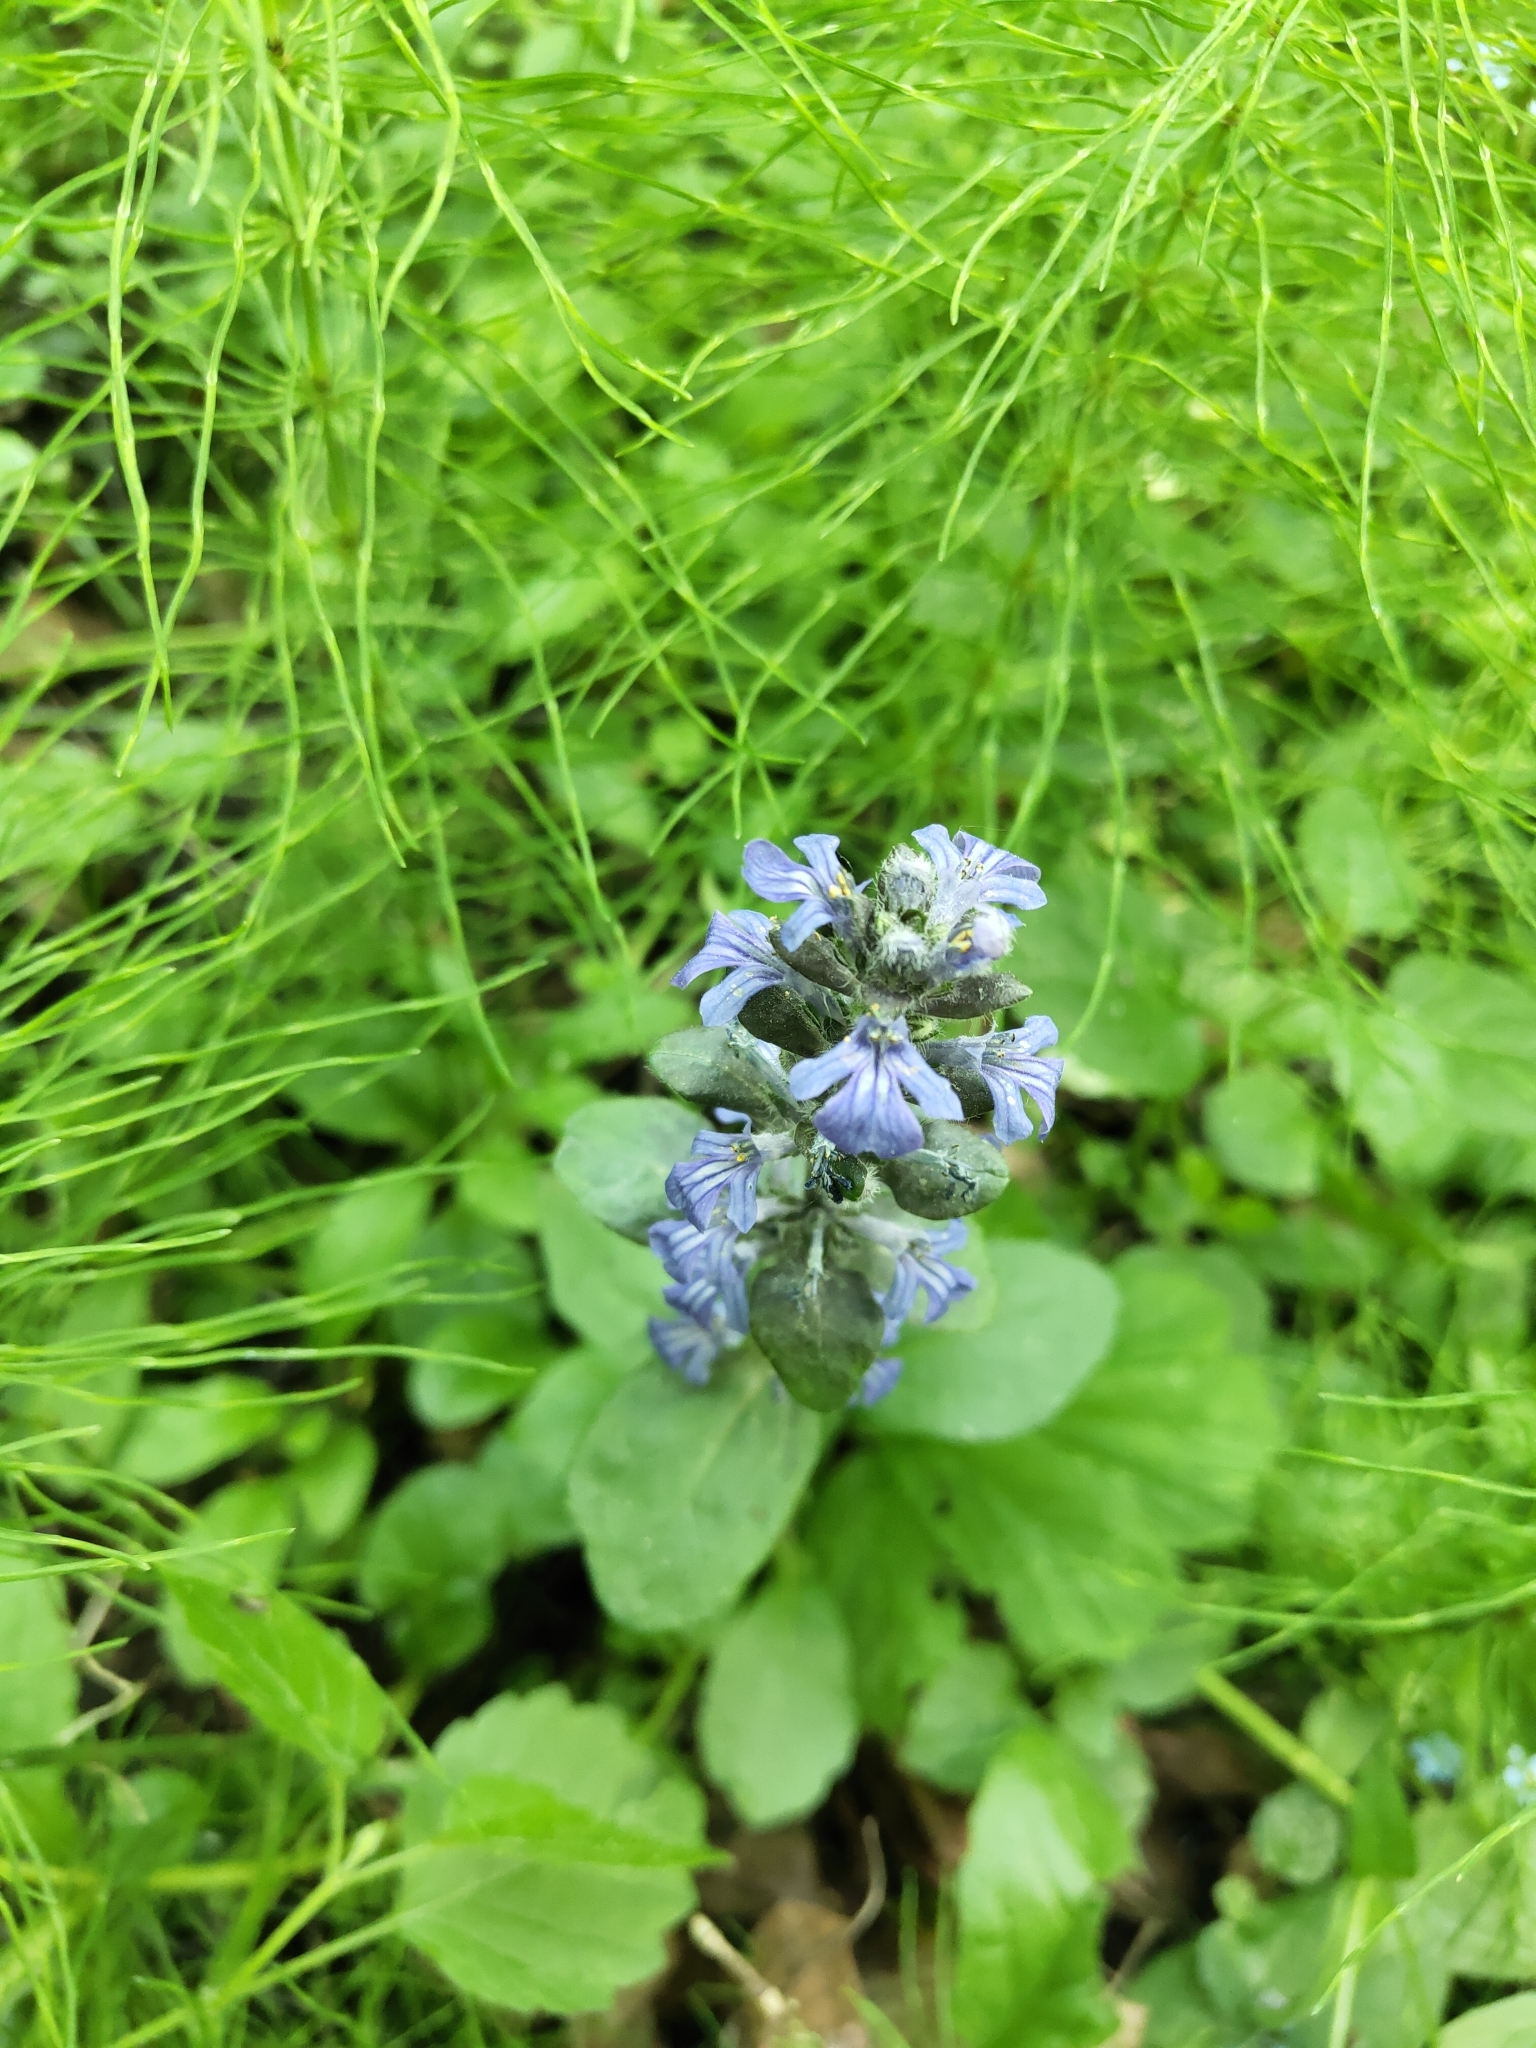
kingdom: Plantae
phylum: Tracheophyta
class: Magnoliopsida
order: Lamiales
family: Lamiaceae
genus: Ajuga
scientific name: Ajuga reptans
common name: Bugle
